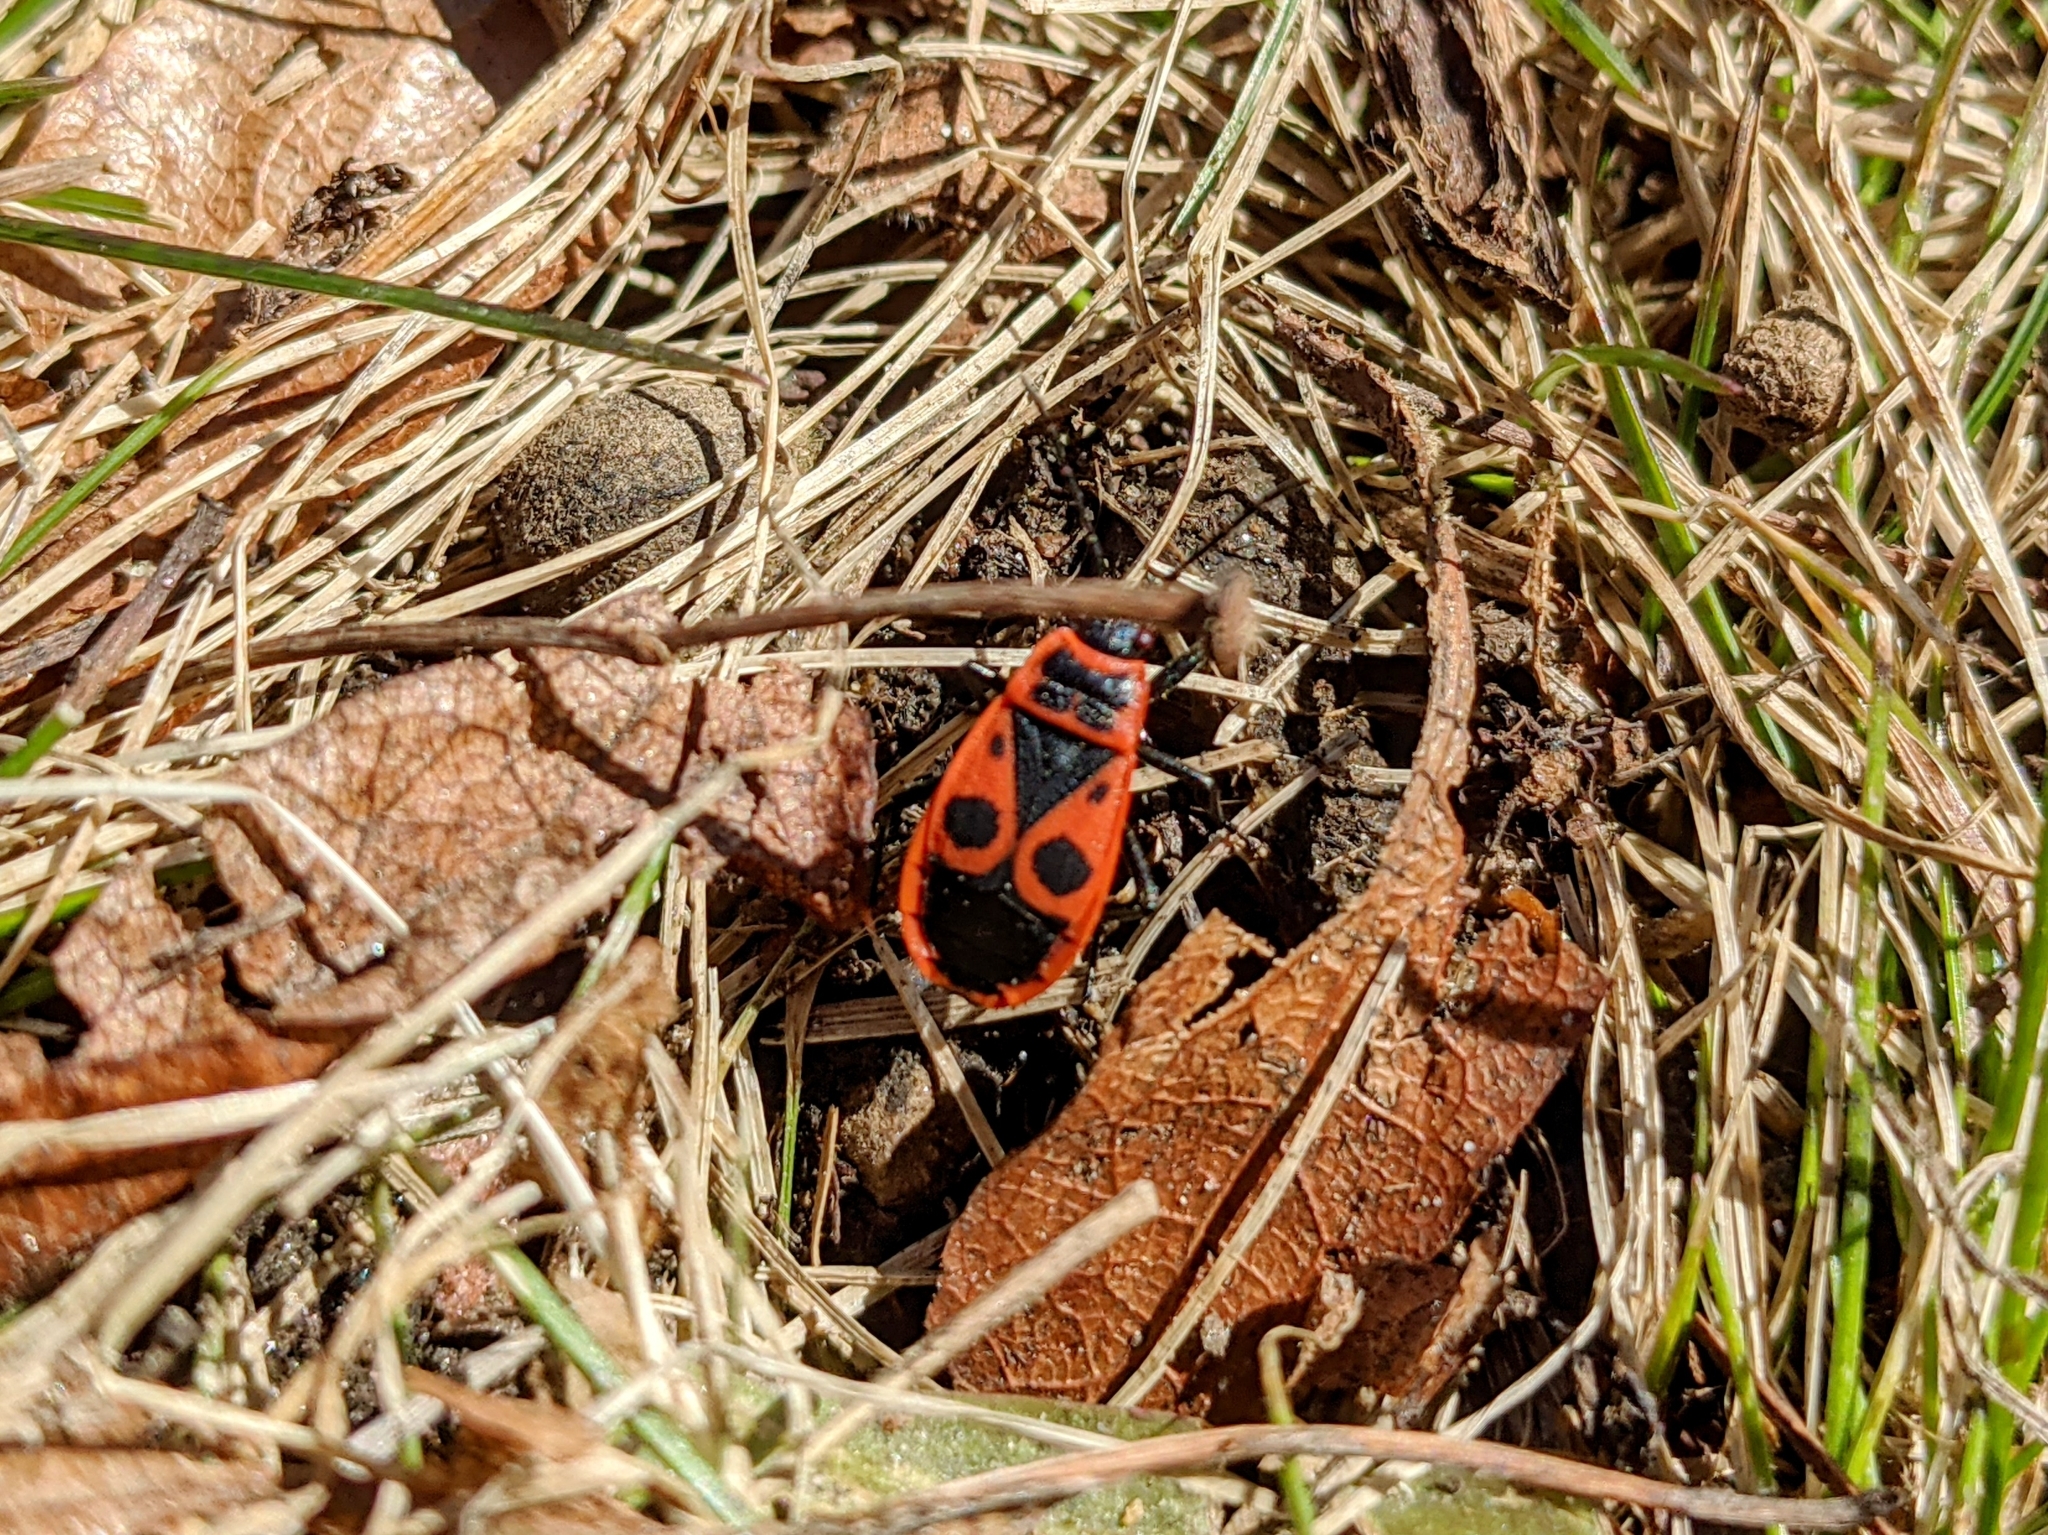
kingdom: Animalia
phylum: Arthropoda
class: Insecta
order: Hemiptera
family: Pyrrhocoridae
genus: Pyrrhocoris
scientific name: Pyrrhocoris apterus
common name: Firebug
